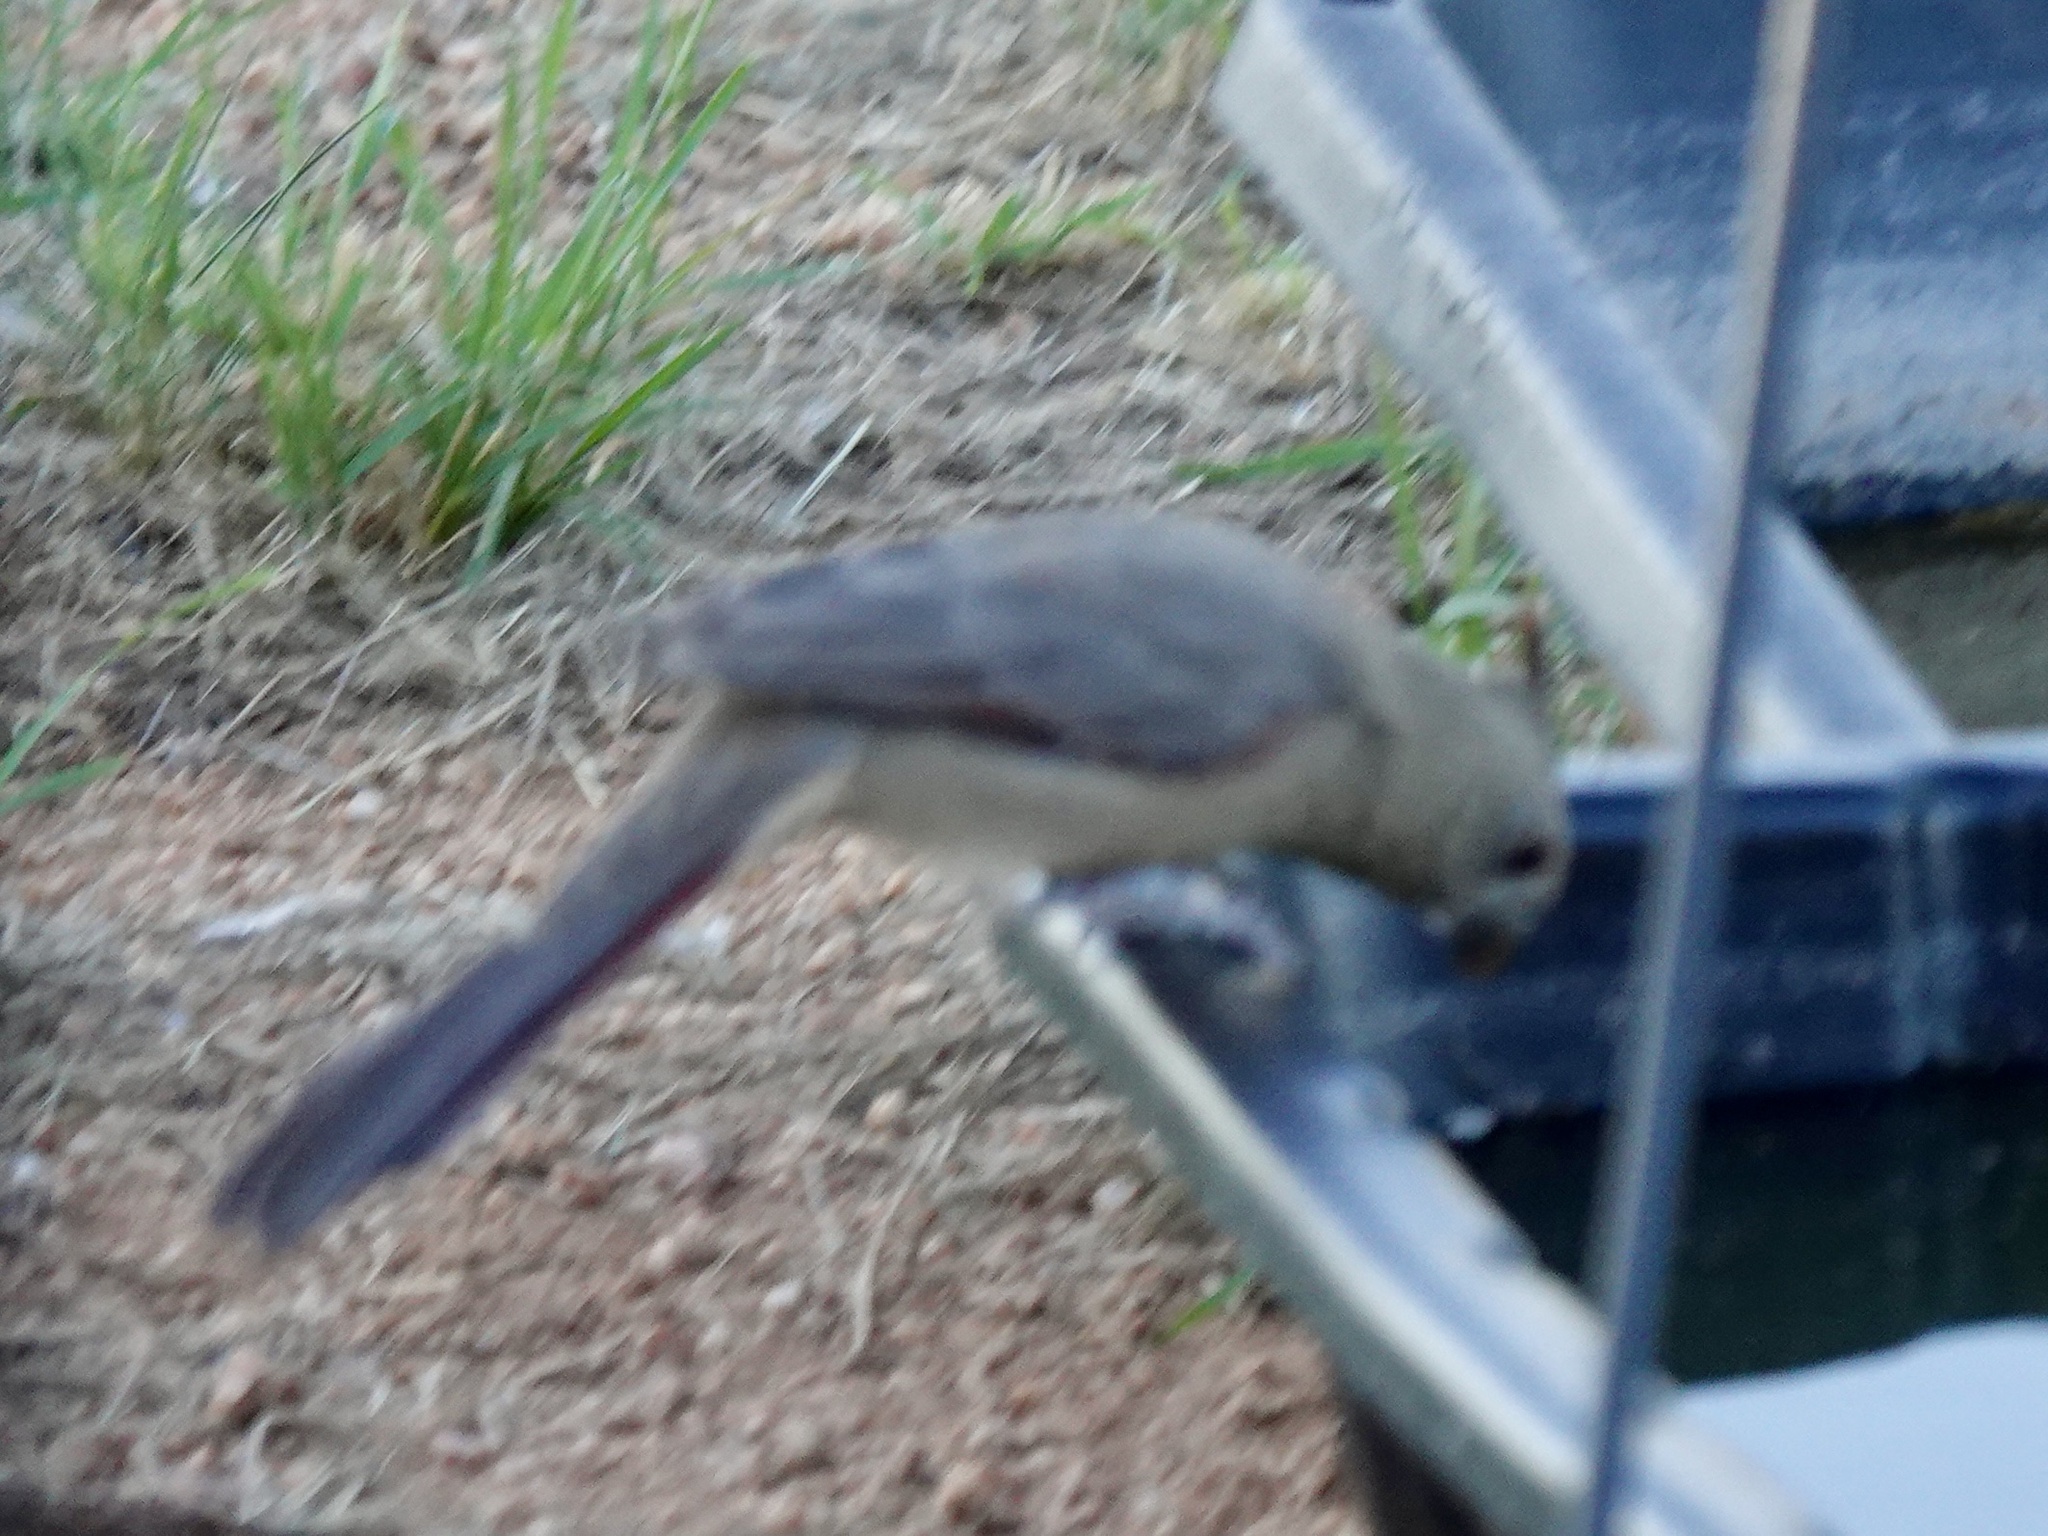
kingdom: Animalia
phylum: Chordata
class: Aves
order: Passeriformes
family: Cardinalidae
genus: Cardinalis
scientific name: Cardinalis sinuatus
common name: Pyrrhuloxia
